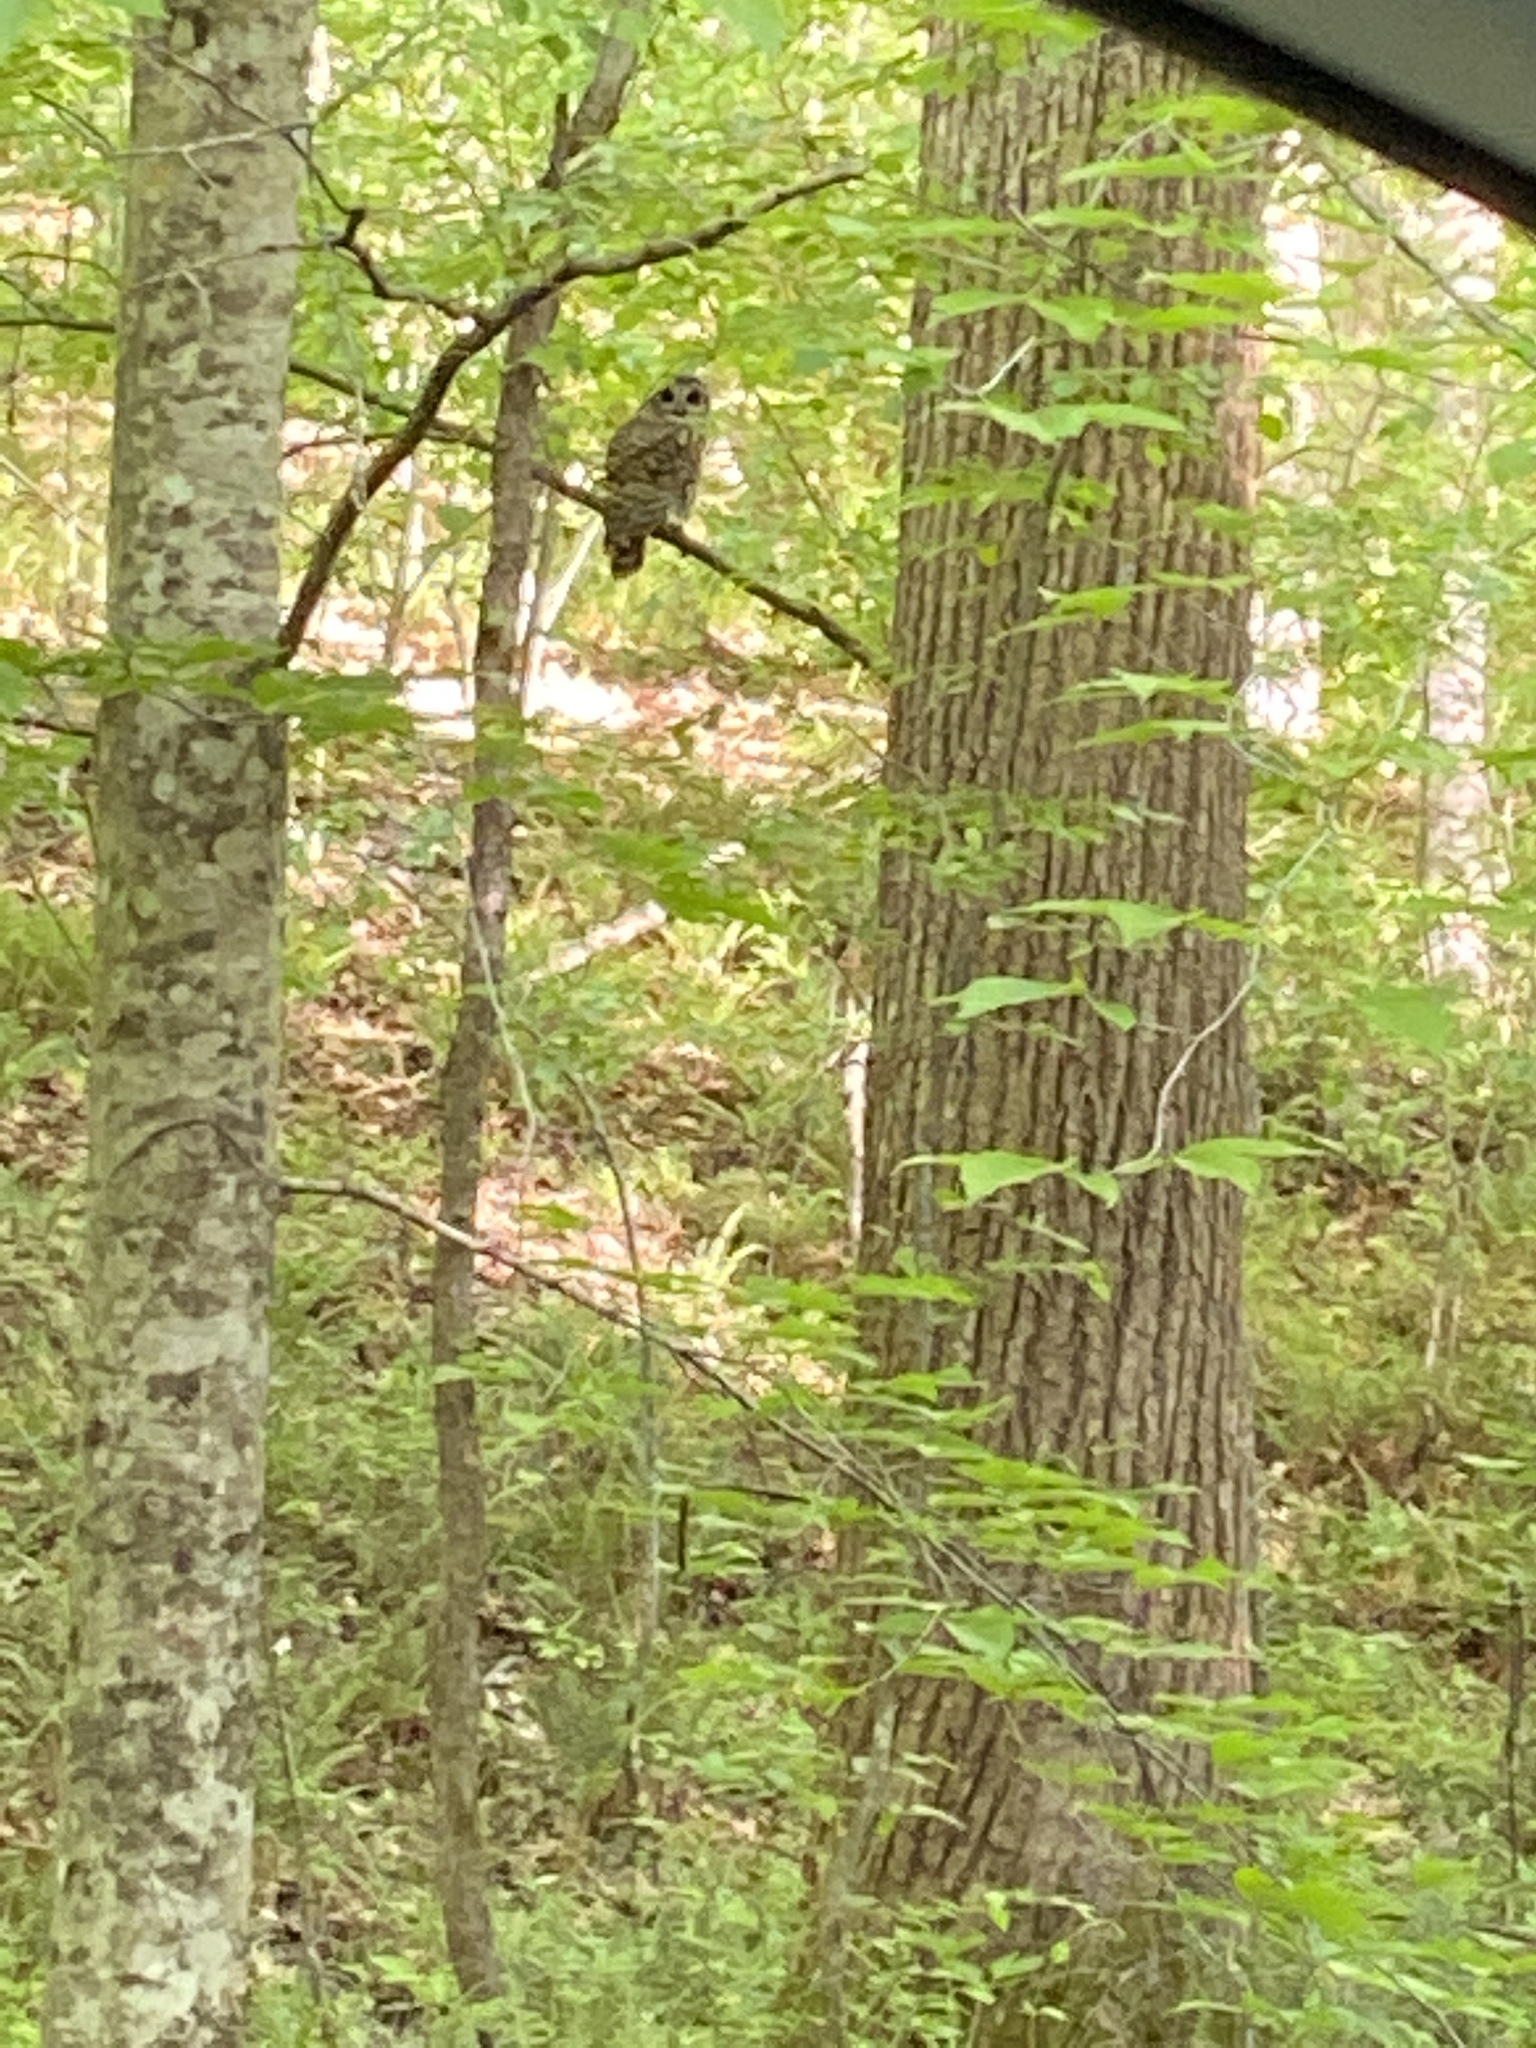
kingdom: Animalia
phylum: Chordata
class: Aves
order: Strigiformes
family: Strigidae
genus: Strix
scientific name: Strix varia
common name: Barred owl
